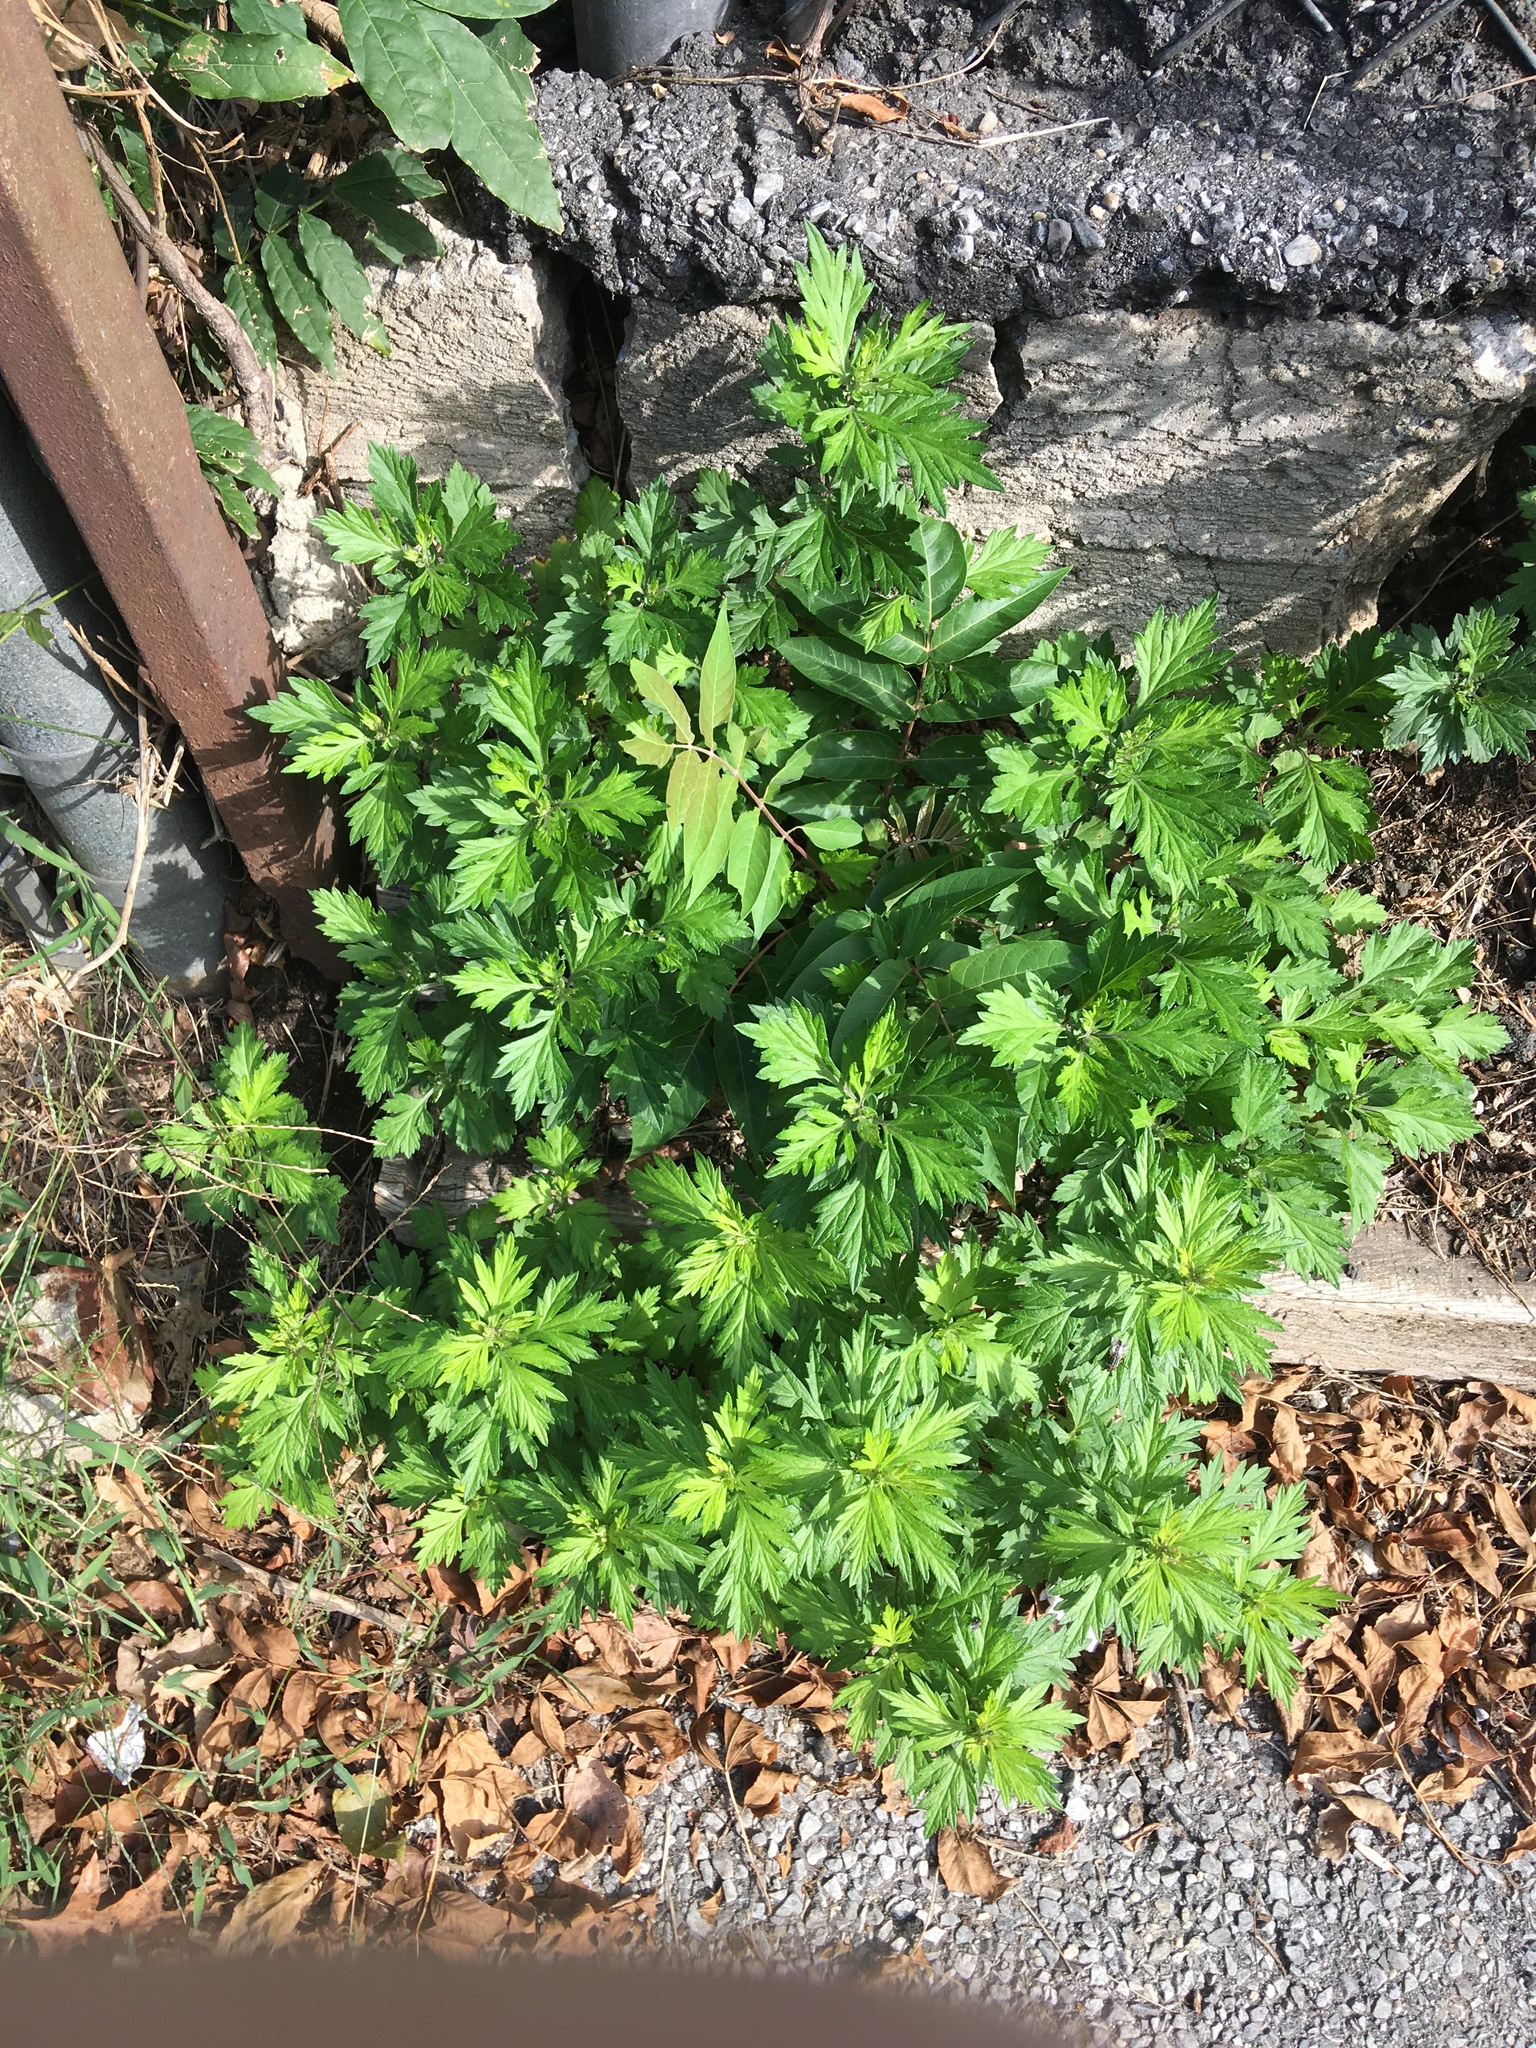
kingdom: Plantae
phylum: Tracheophyta
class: Magnoliopsida
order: Asterales
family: Asteraceae
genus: Artemisia
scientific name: Artemisia vulgaris
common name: Mugwort
